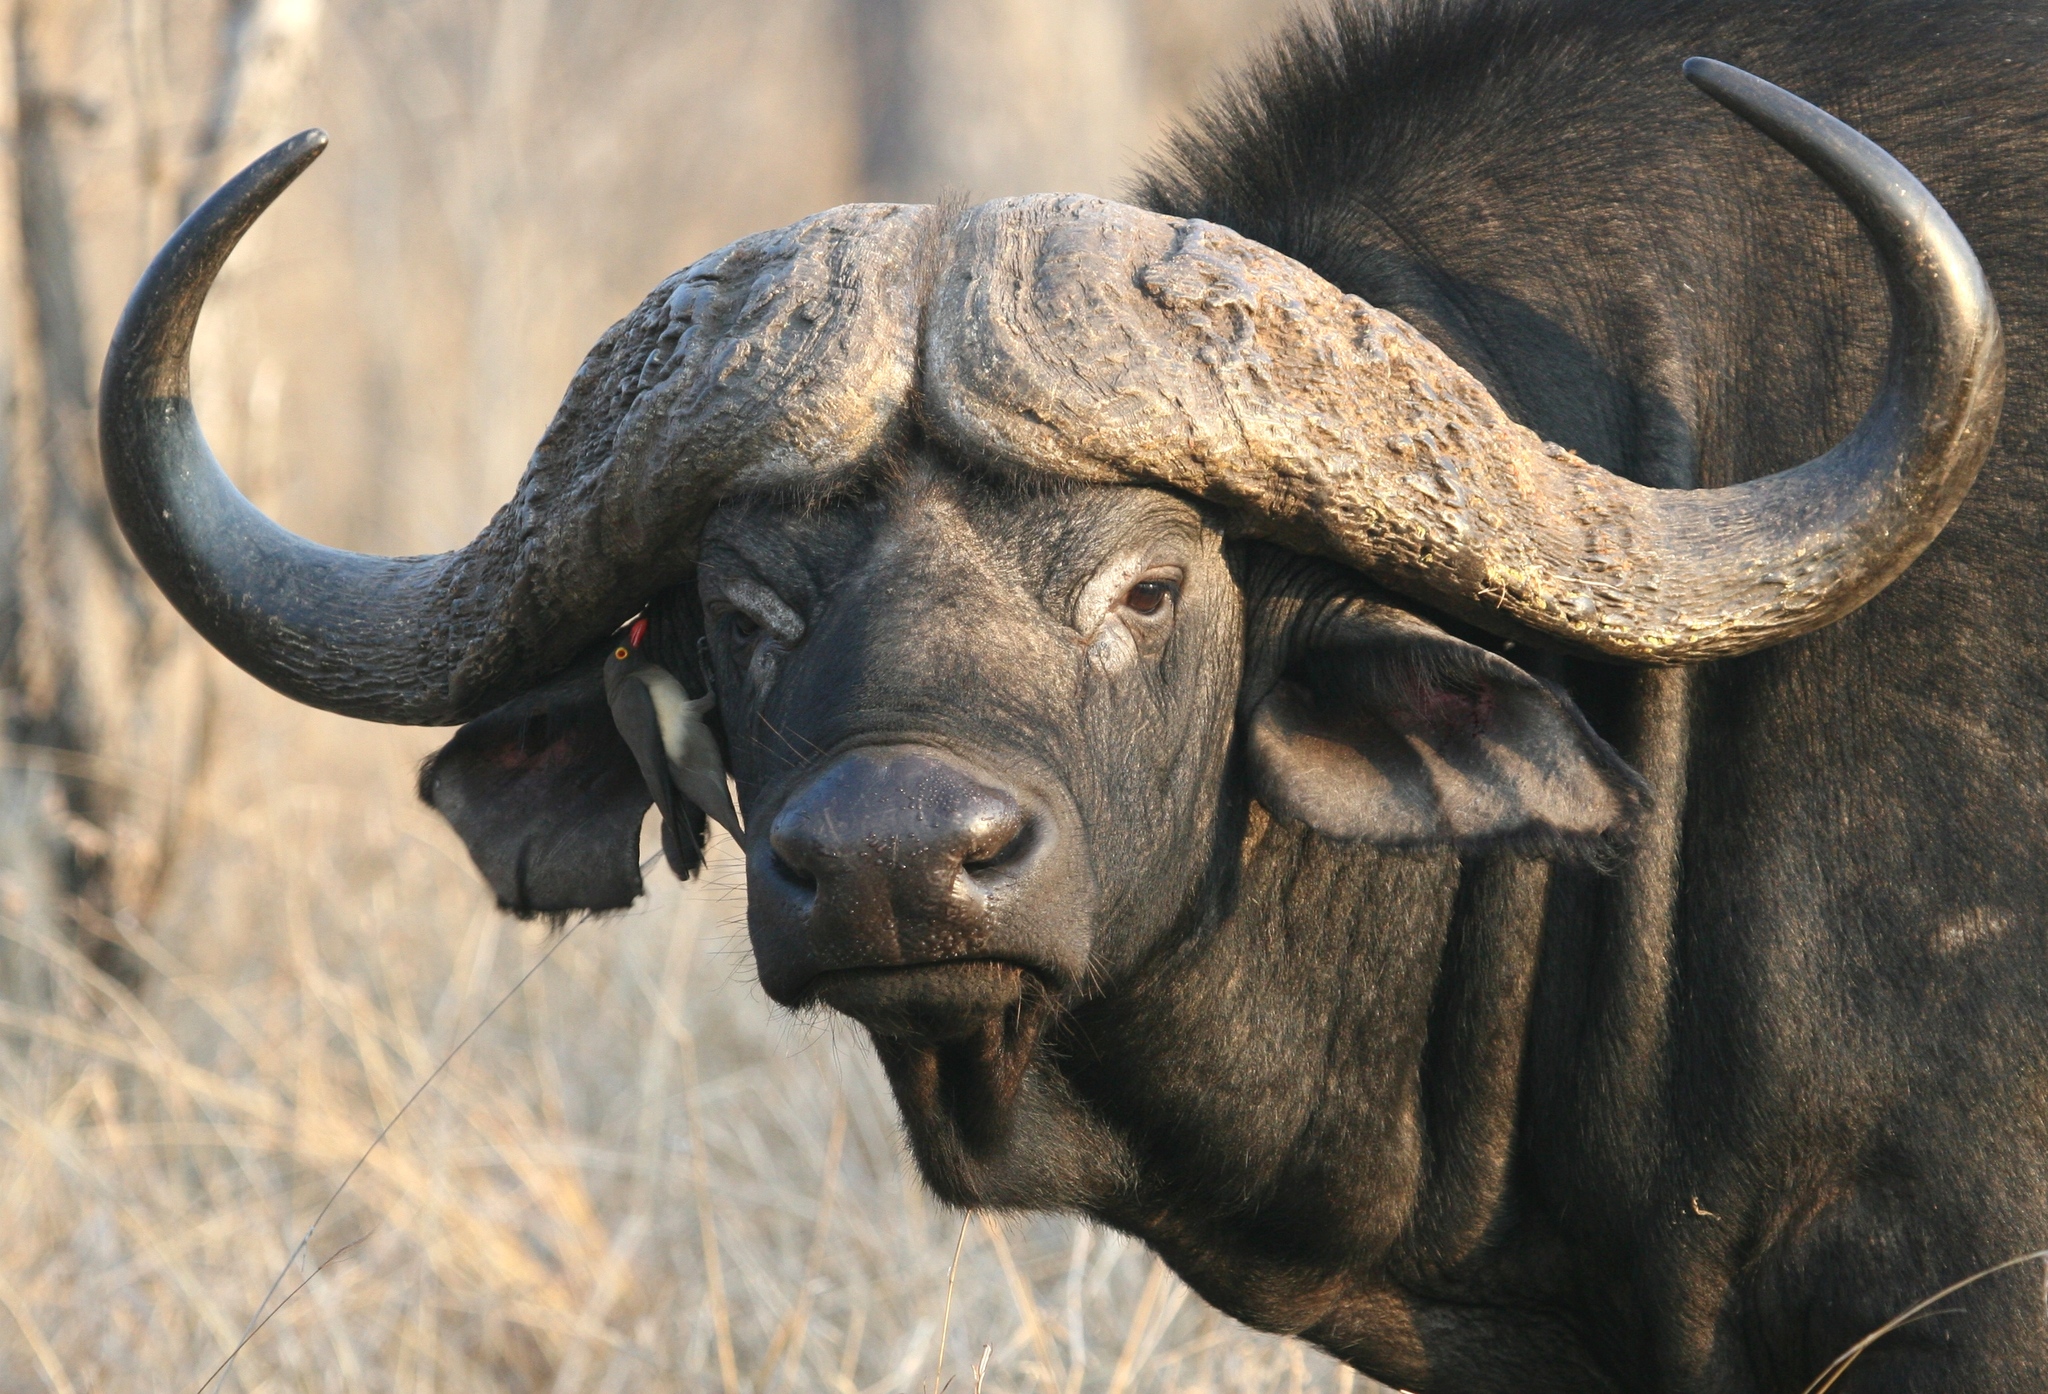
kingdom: Animalia
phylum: Chordata
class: Mammalia
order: Artiodactyla
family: Bovidae
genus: Syncerus
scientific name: Syncerus caffer
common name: African buffalo
